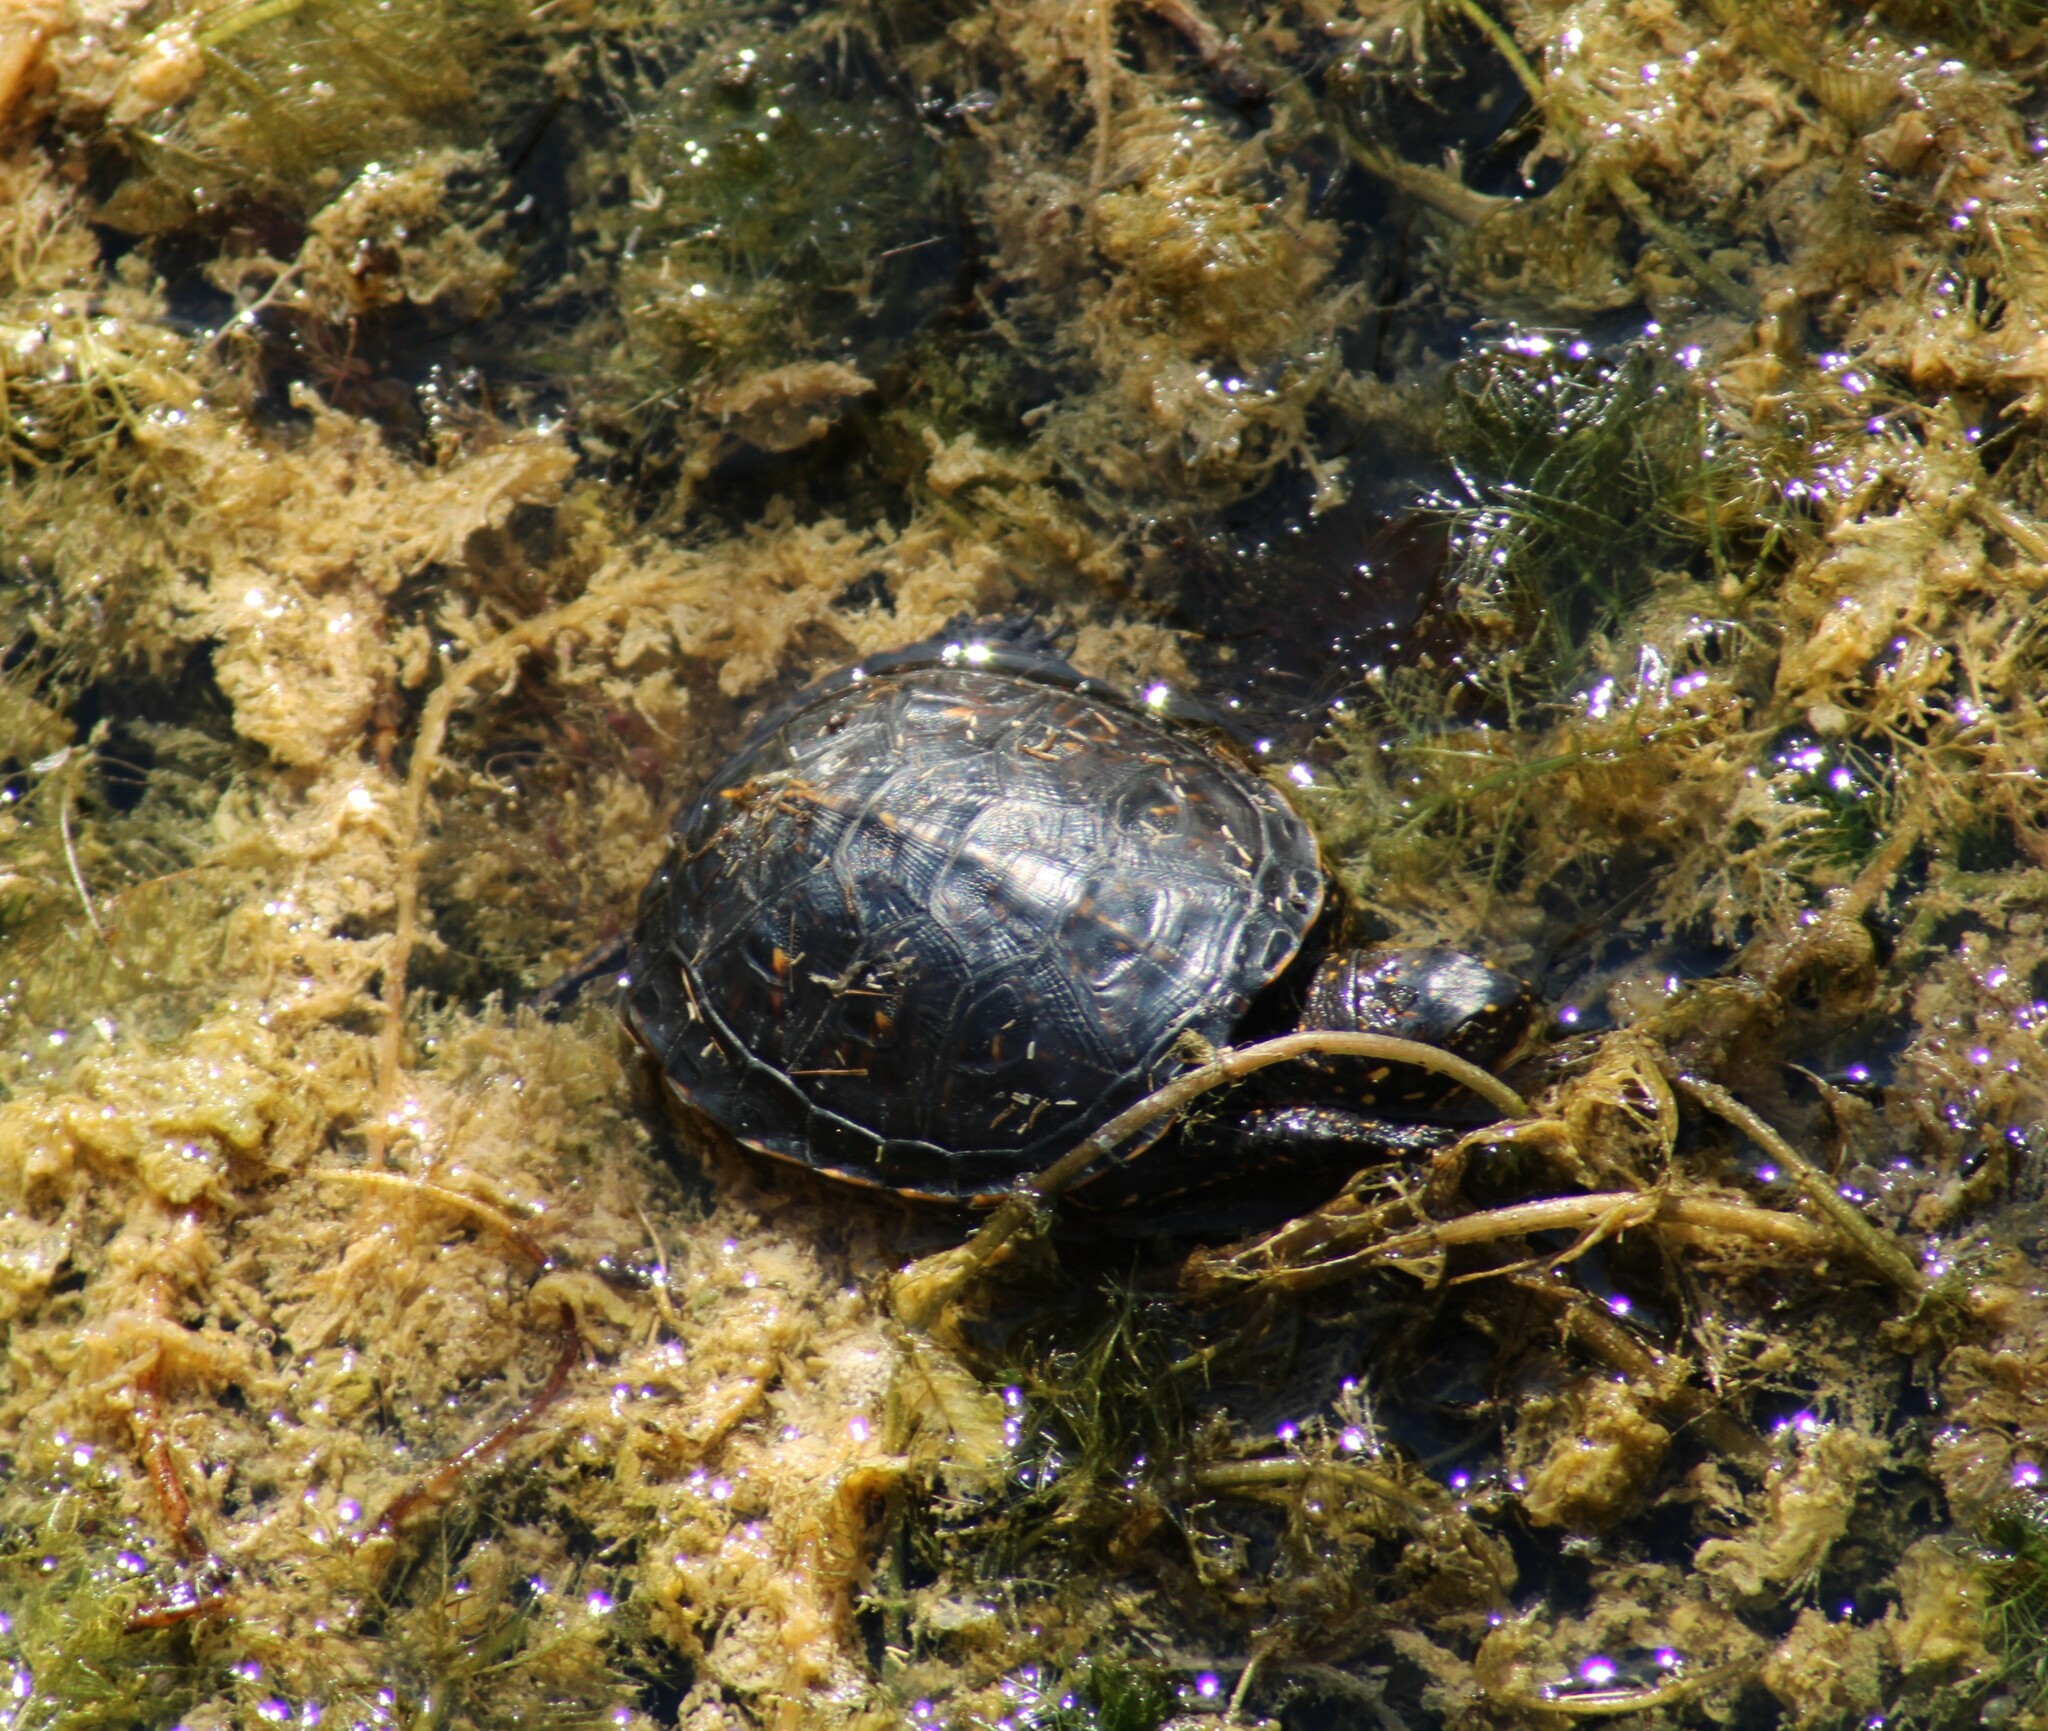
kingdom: Animalia
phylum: Chordata
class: Testudines
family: Emydidae
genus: Emys
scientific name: Emys orbicularis
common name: European pond turtle
